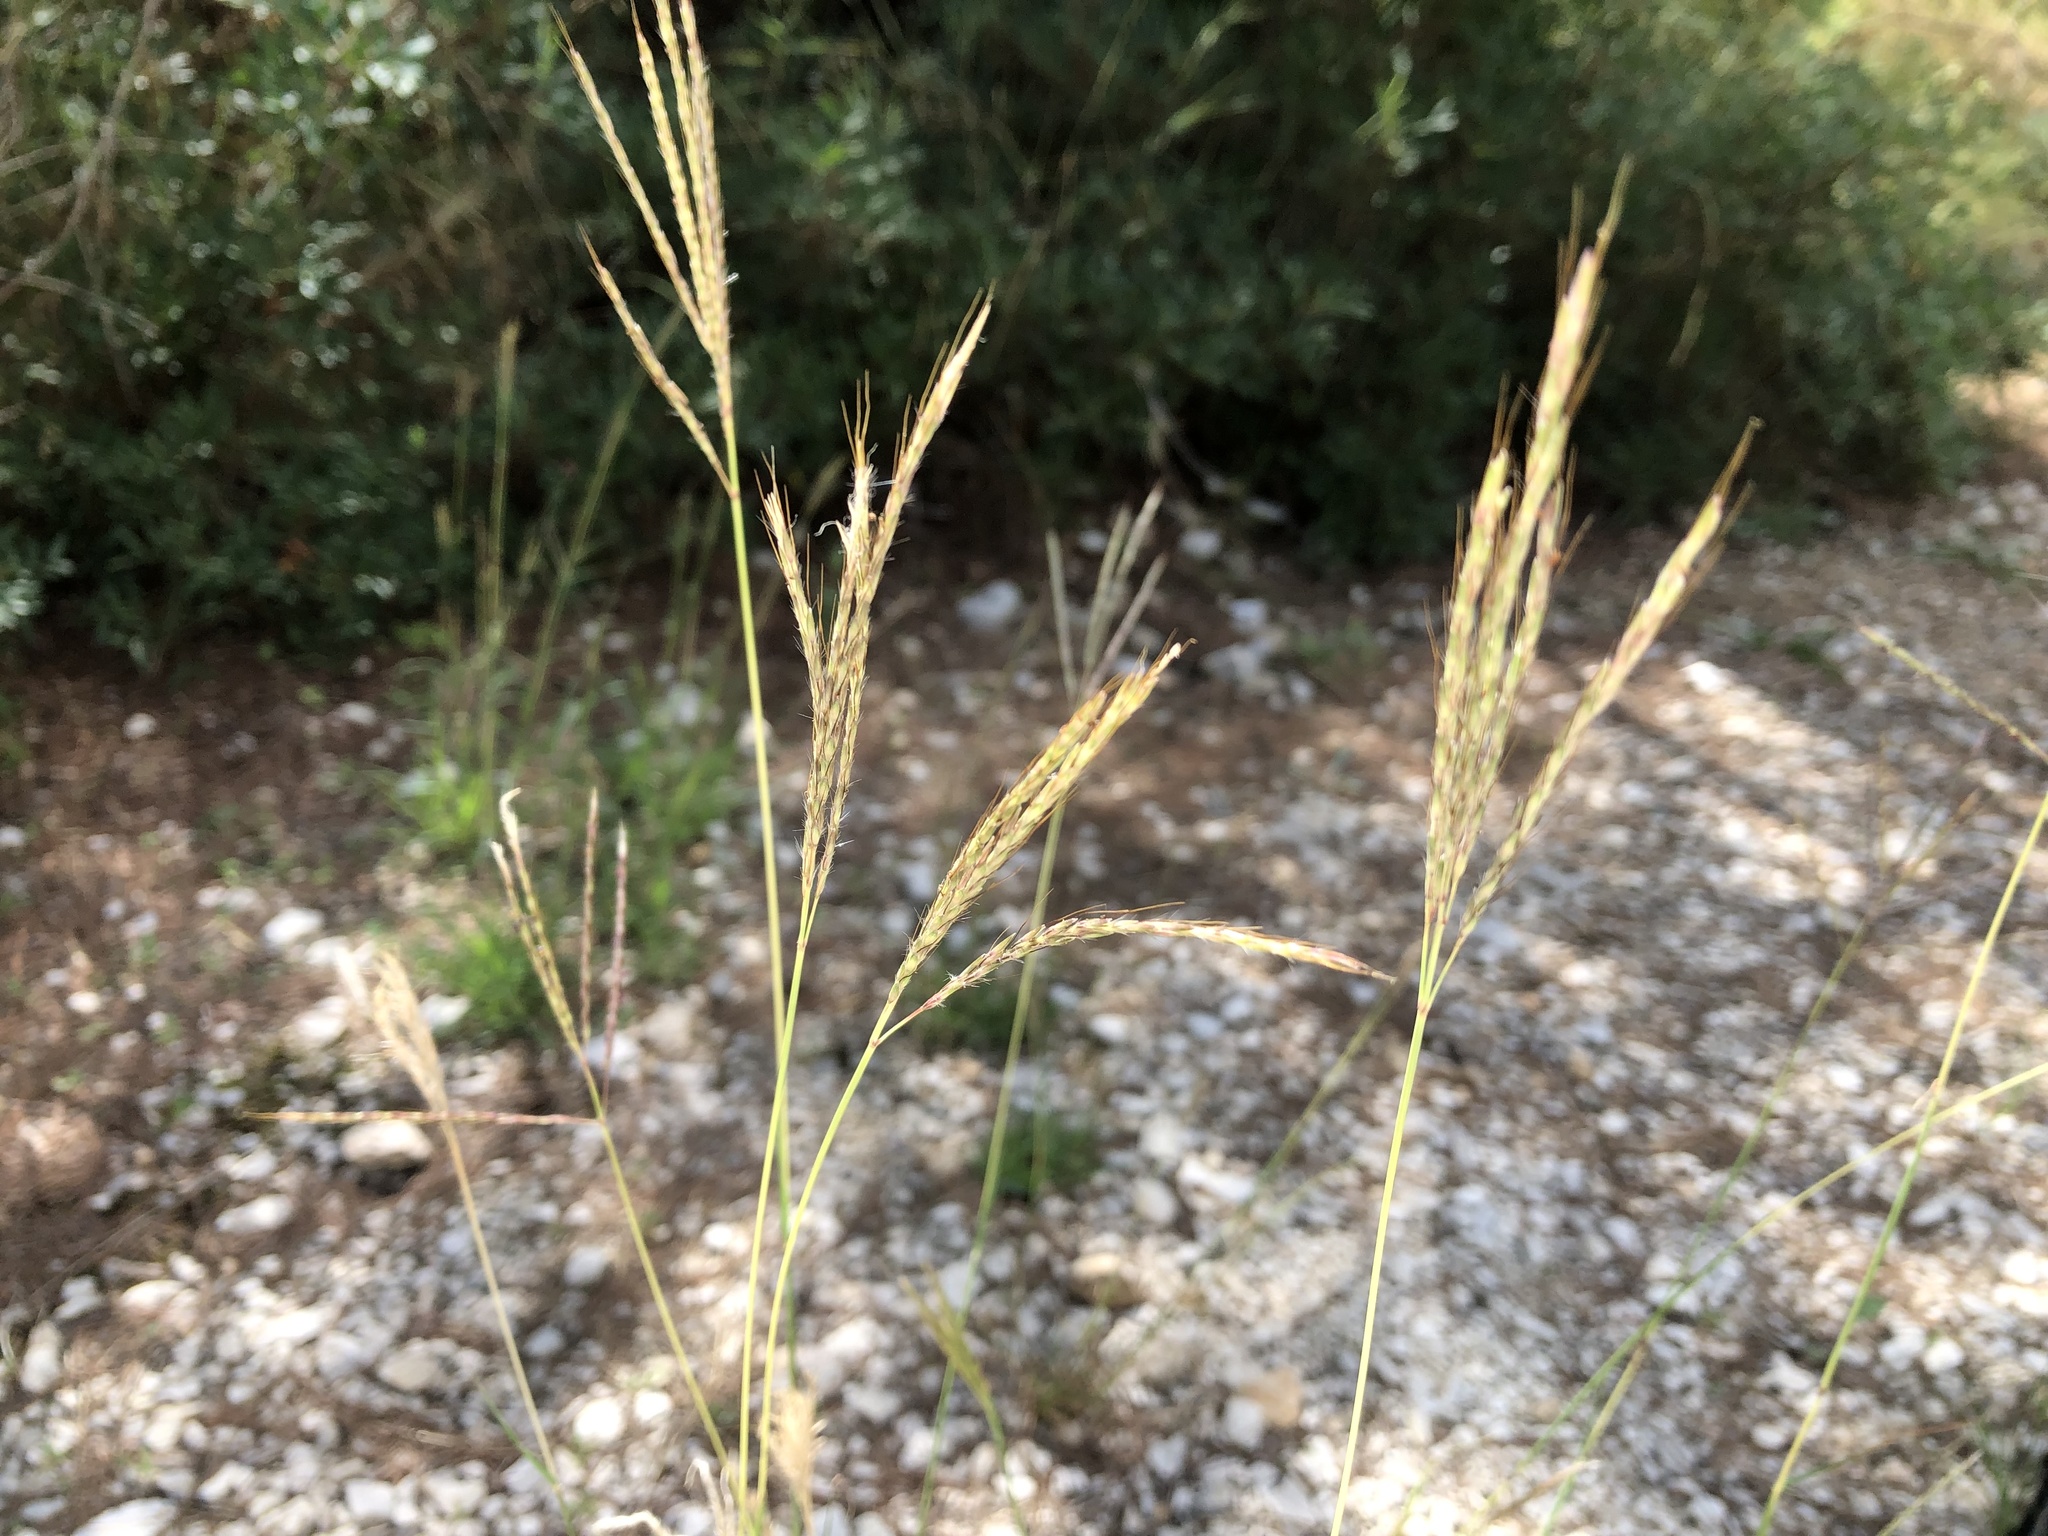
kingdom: Plantae
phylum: Tracheophyta
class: Liliopsida
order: Poales
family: Poaceae
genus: Bothriochloa
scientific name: Bothriochloa ischaemum
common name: Yellow bluestem
